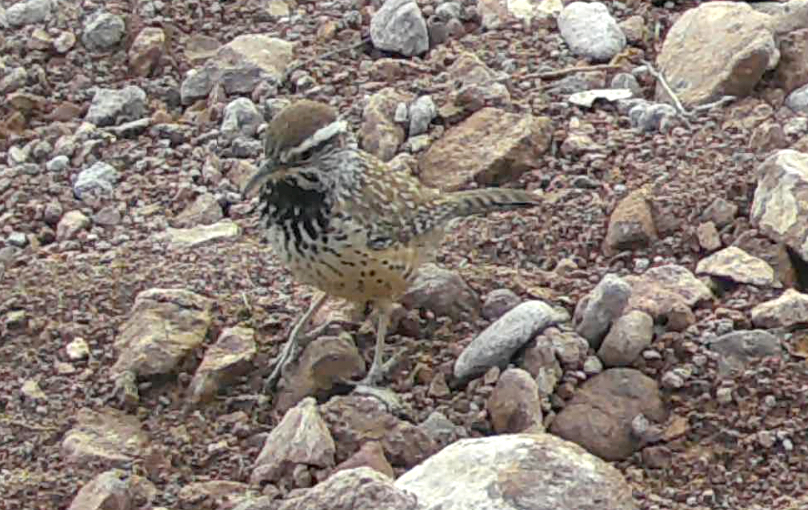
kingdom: Animalia
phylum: Chordata
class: Aves
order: Passeriformes
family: Troglodytidae
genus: Campylorhynchus
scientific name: Campylorhynchus brunneicapillus
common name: Cactus wren
